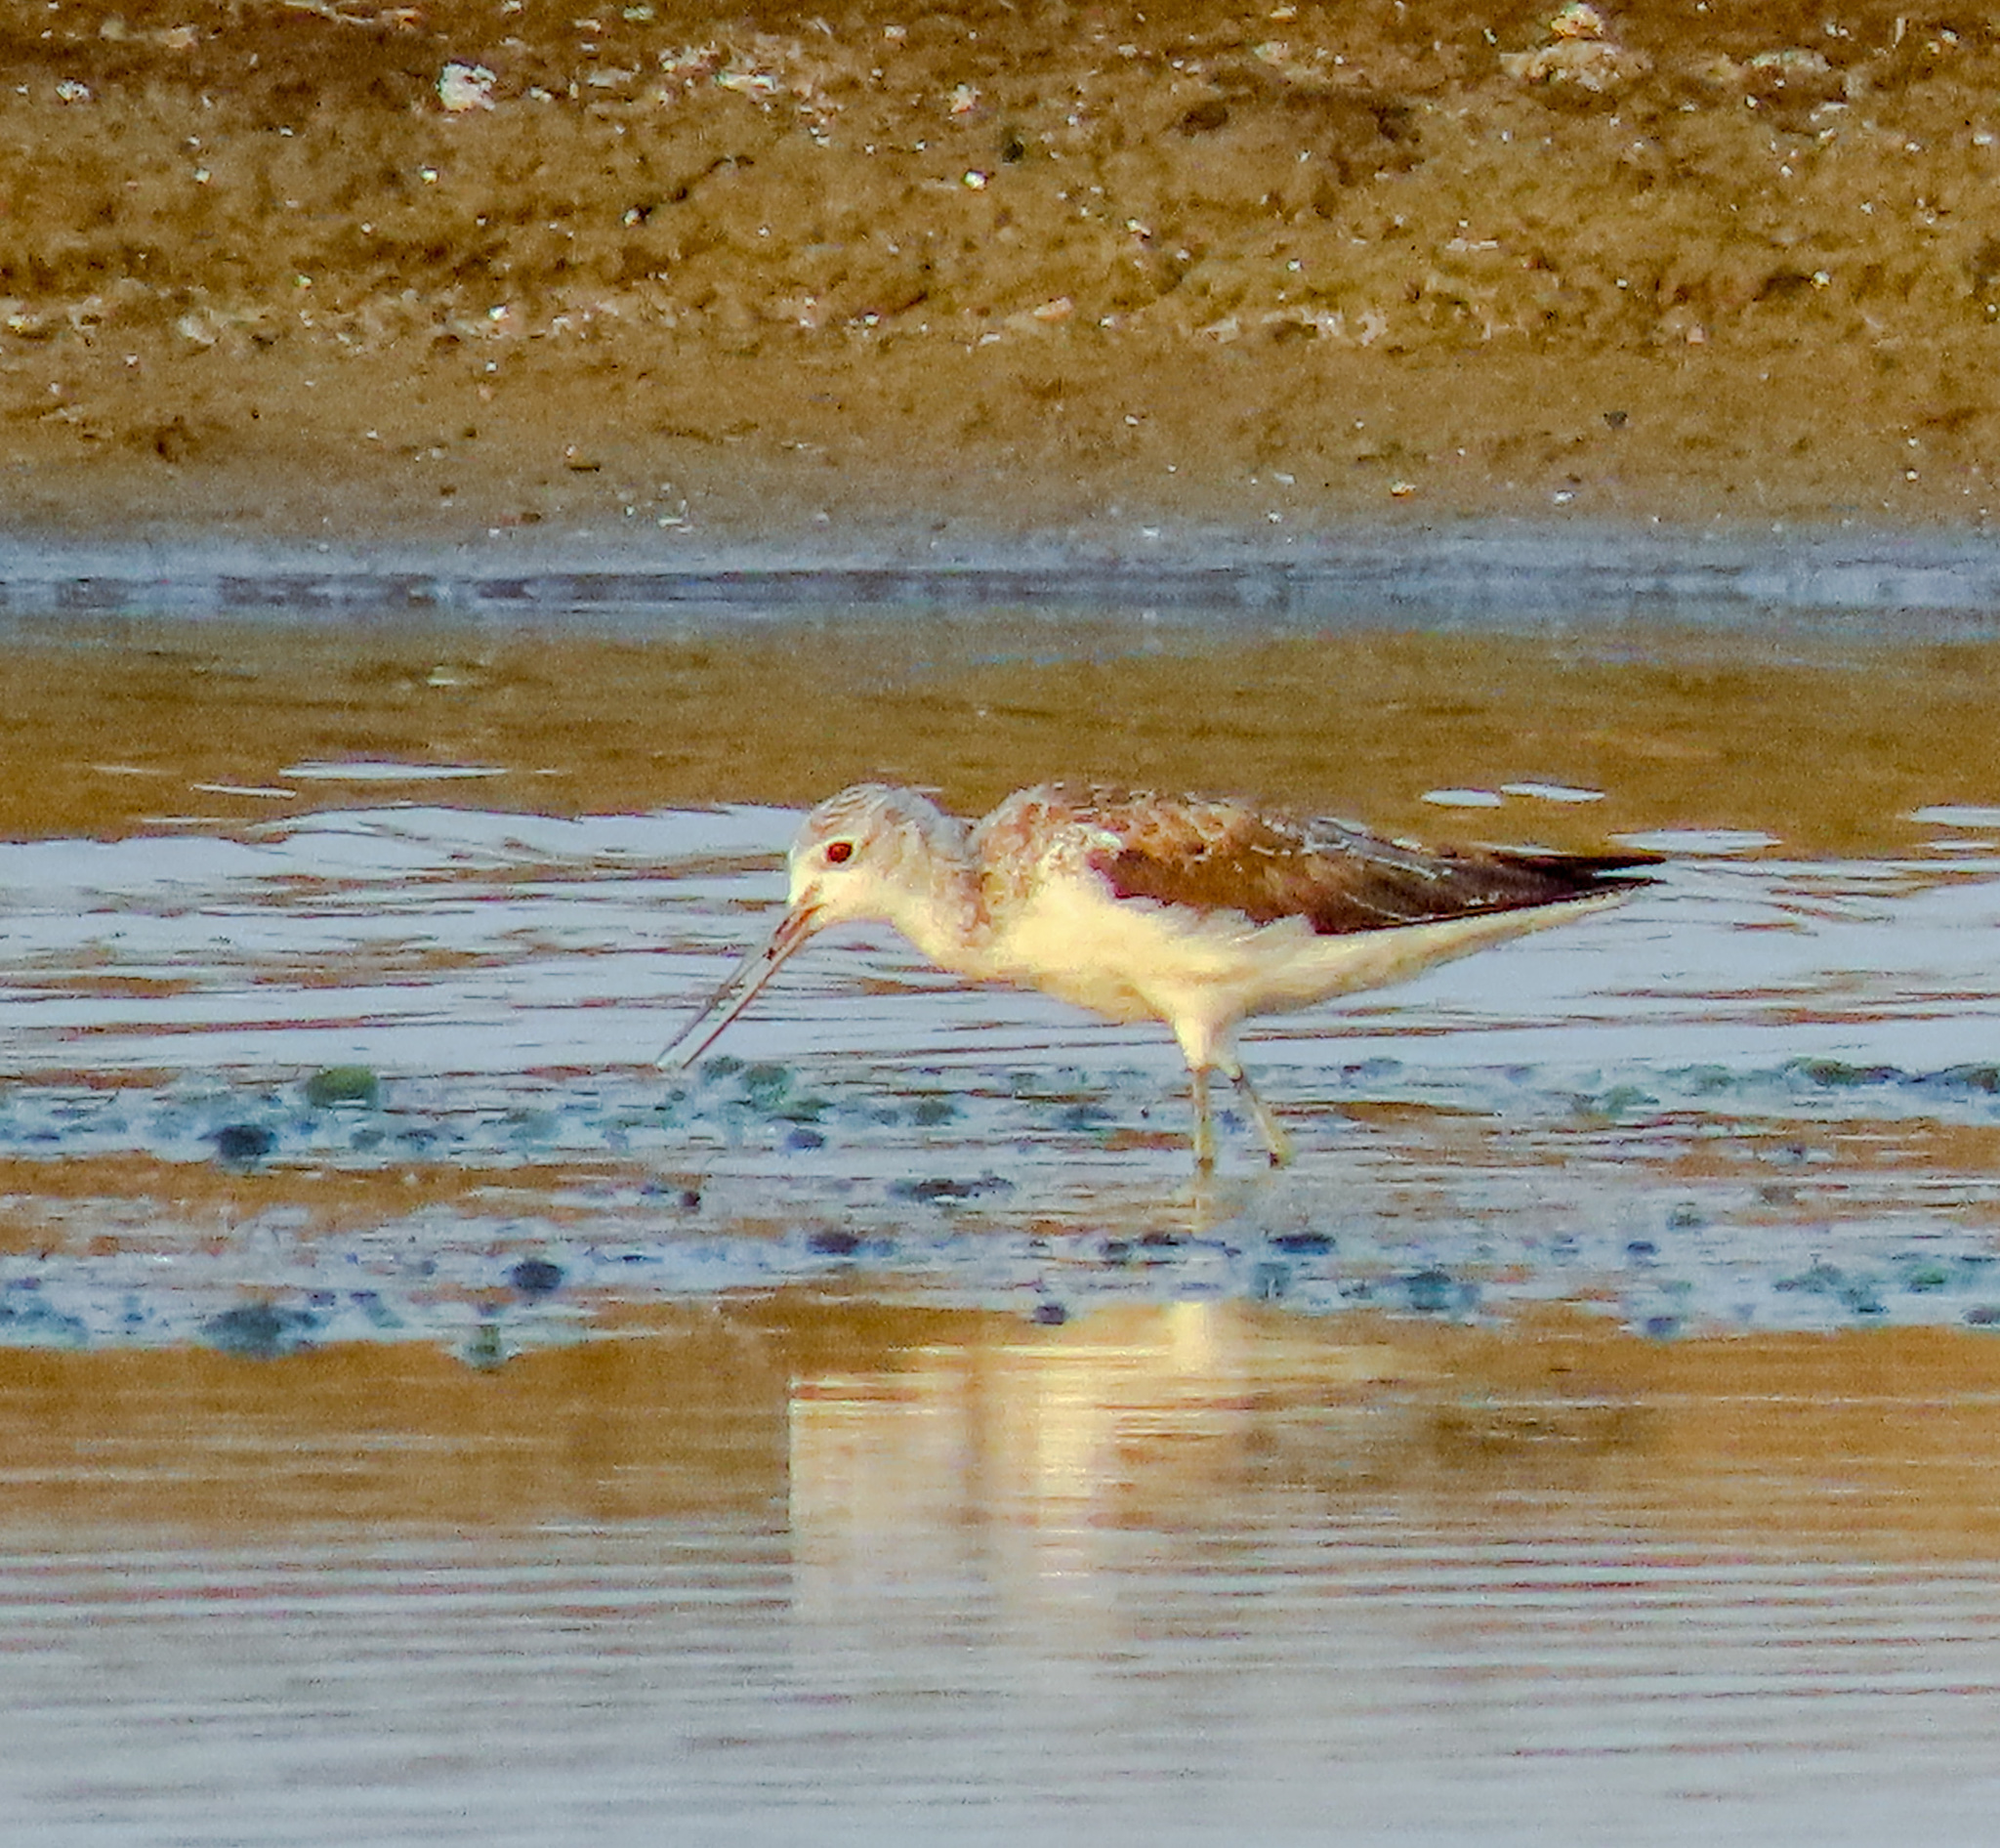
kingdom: Animalia
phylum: Chordata
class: Aves
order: Charadriiformes
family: Scolopacidae
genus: Tringa
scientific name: Tringa nebularia
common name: Common greenshank
